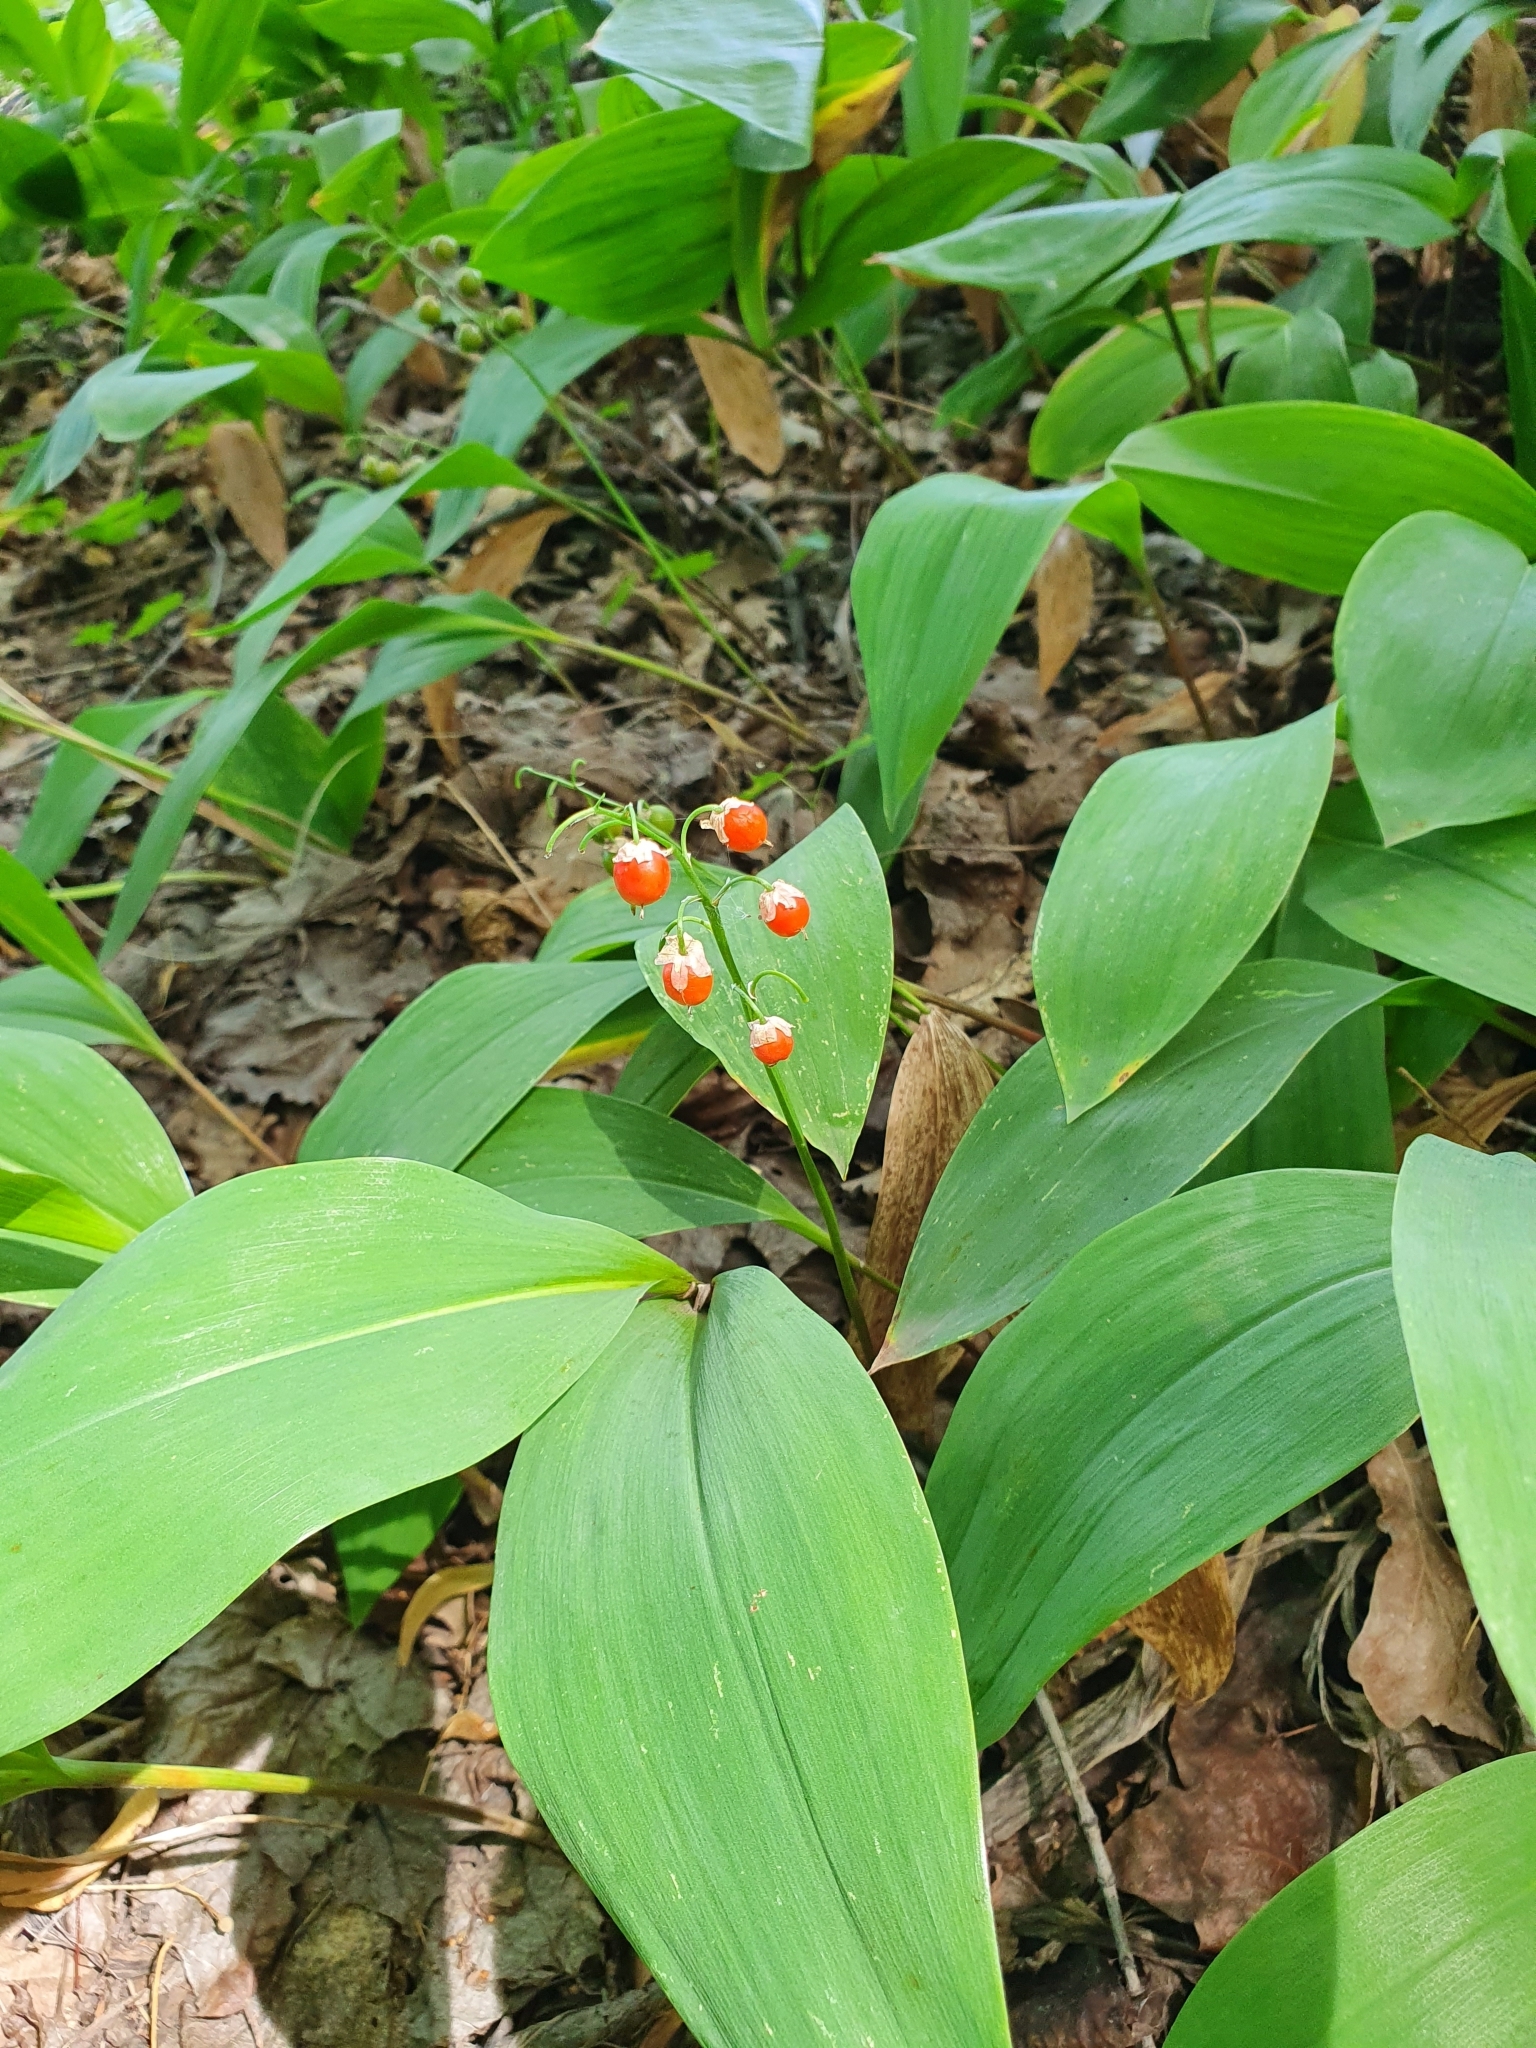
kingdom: Plantae
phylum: Tracheophyta
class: Liliopsida
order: Asparagales
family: Asparagaceae
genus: Convallaria
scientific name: Convallaria majalis
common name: Lily-of-the-valley
